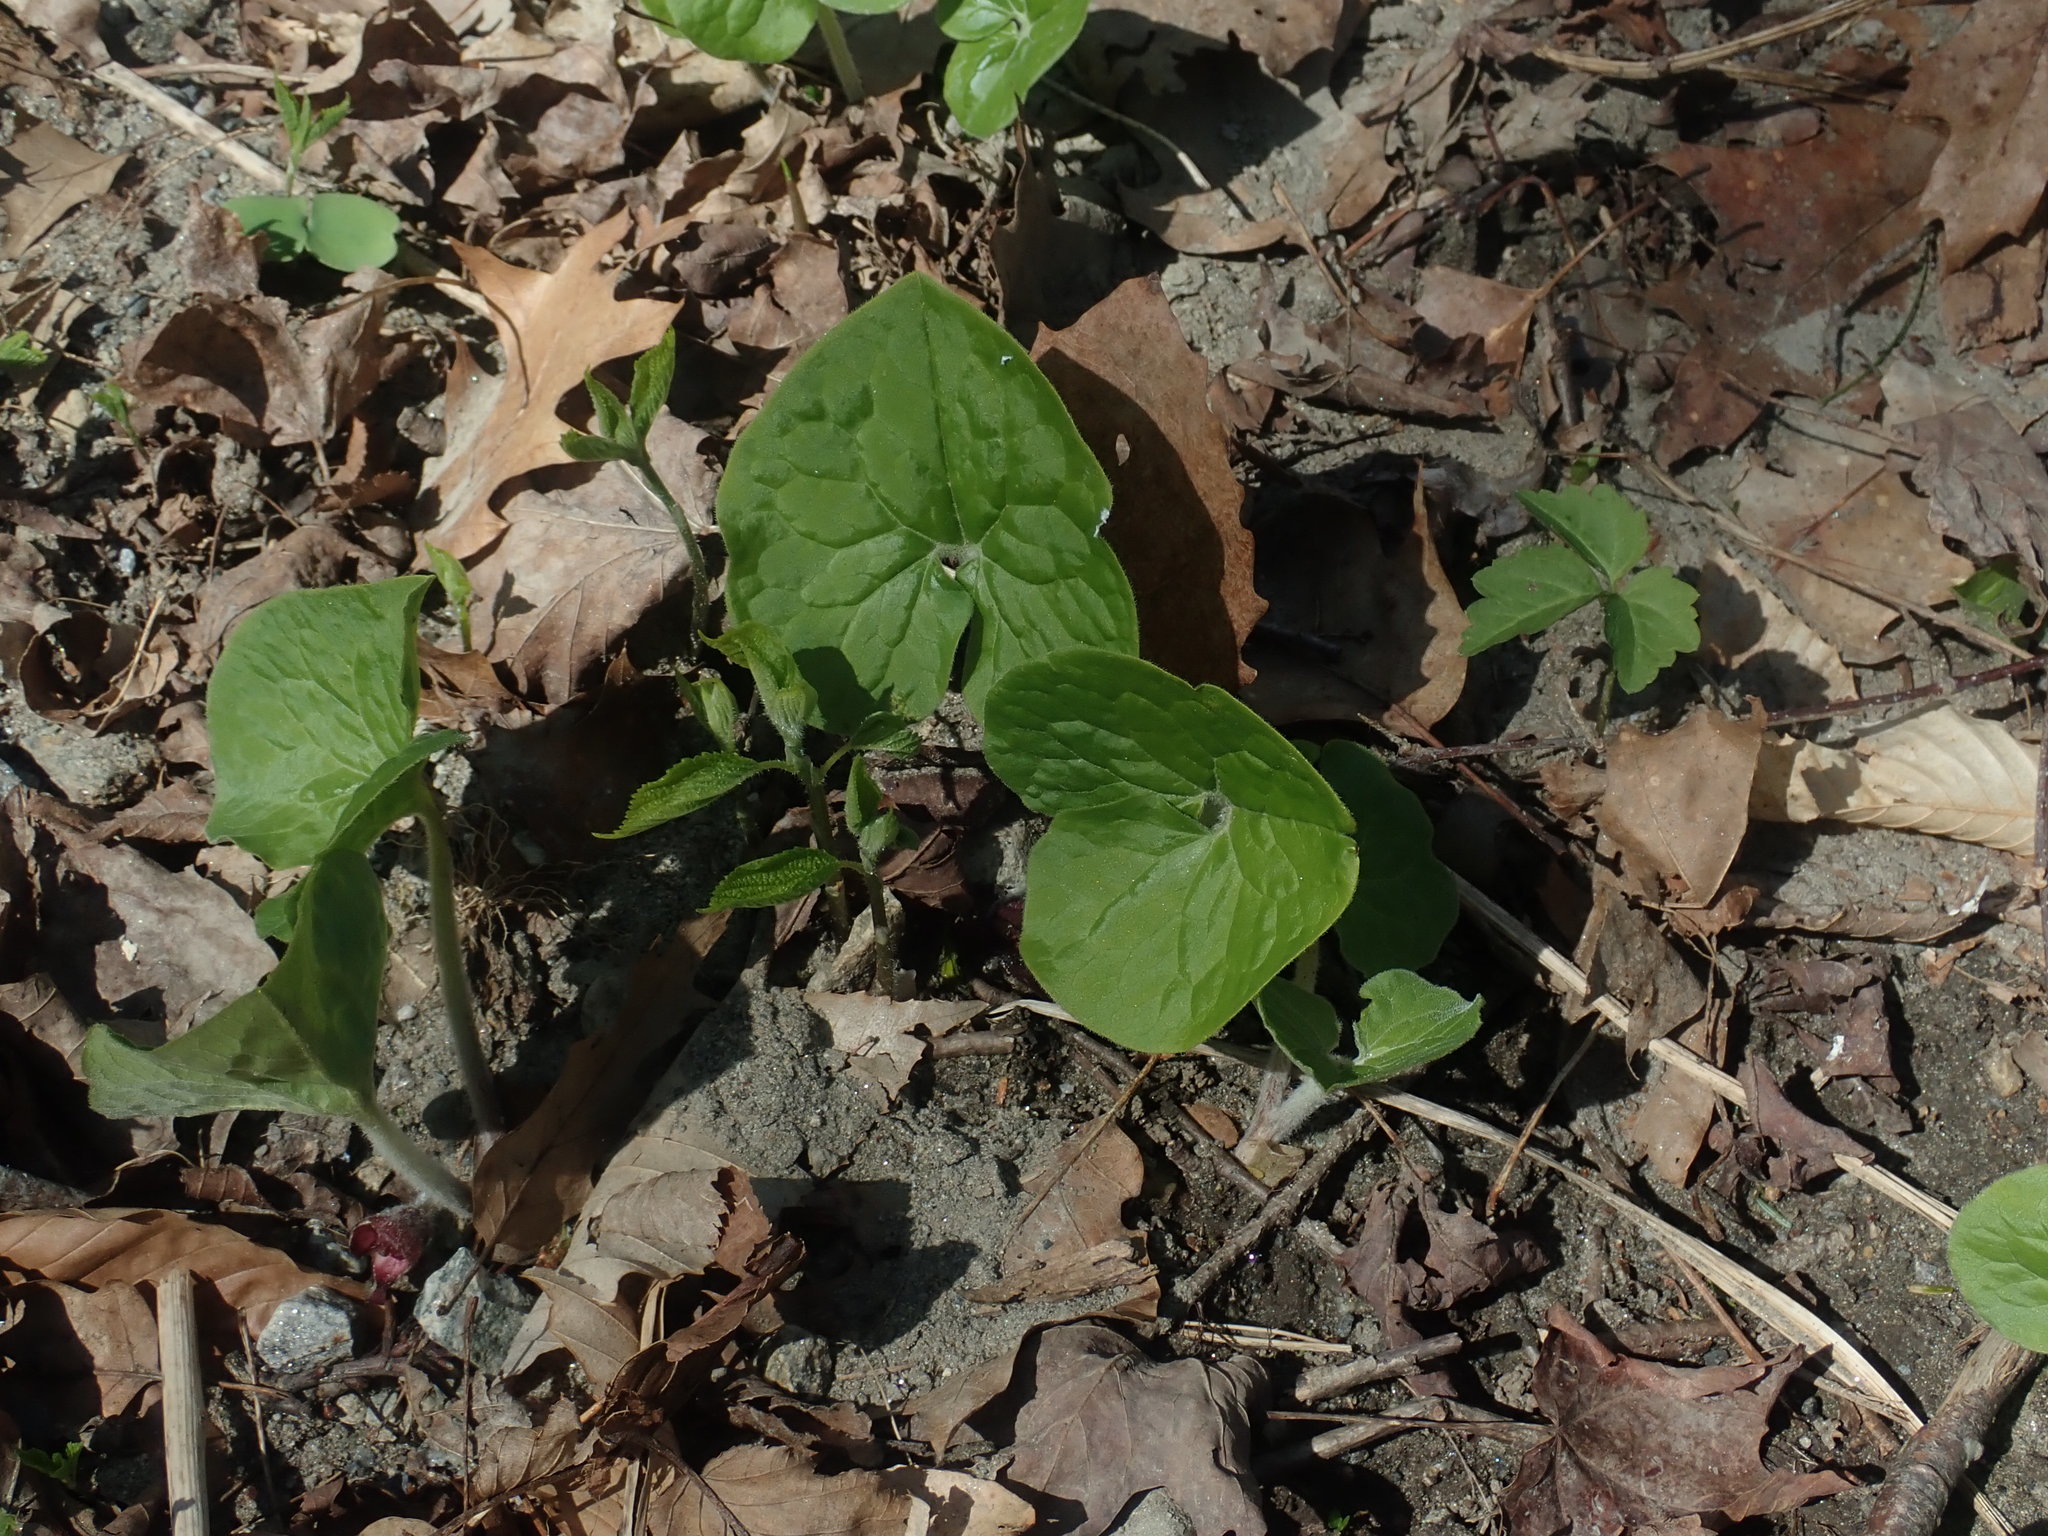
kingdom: Plantae
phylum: Tracheophyta
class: Magnoliopsida
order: Piperales
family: Aristolochiaceae
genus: Asarum
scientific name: Asarum canadense
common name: Wild ginger
